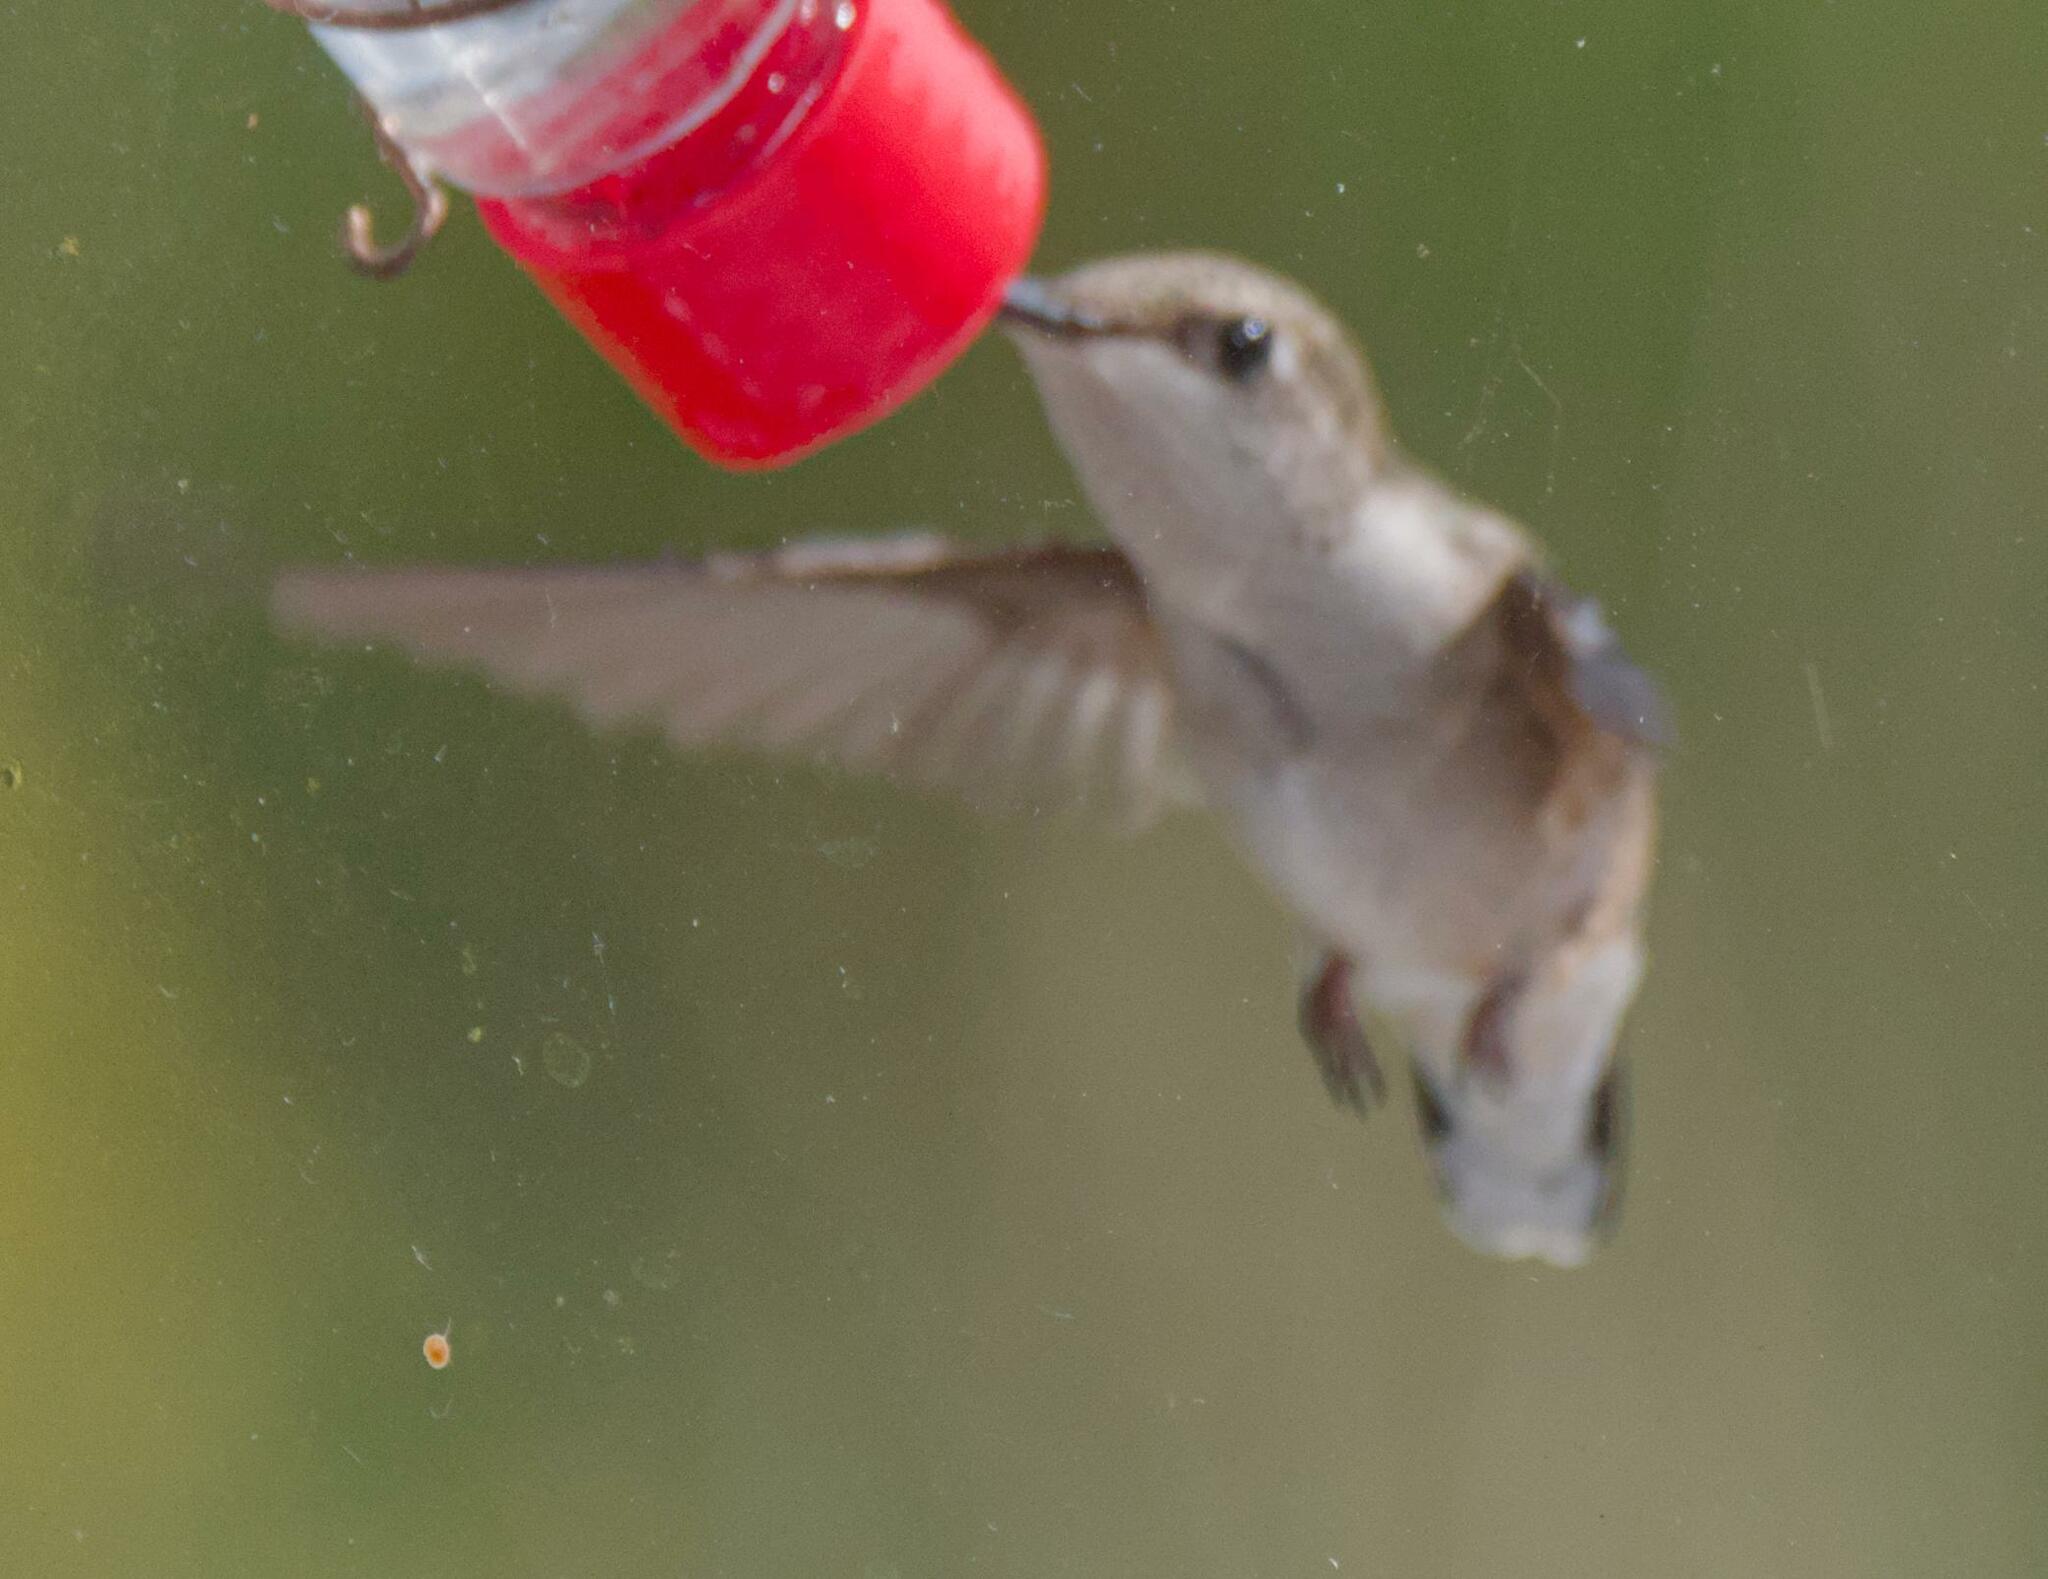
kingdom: Animalia
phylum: Chordata
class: Aves
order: Apodiformes
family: Trochilidae
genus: Archilochus
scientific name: Archilochus colubris
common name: Ruby-throated hummingbird
